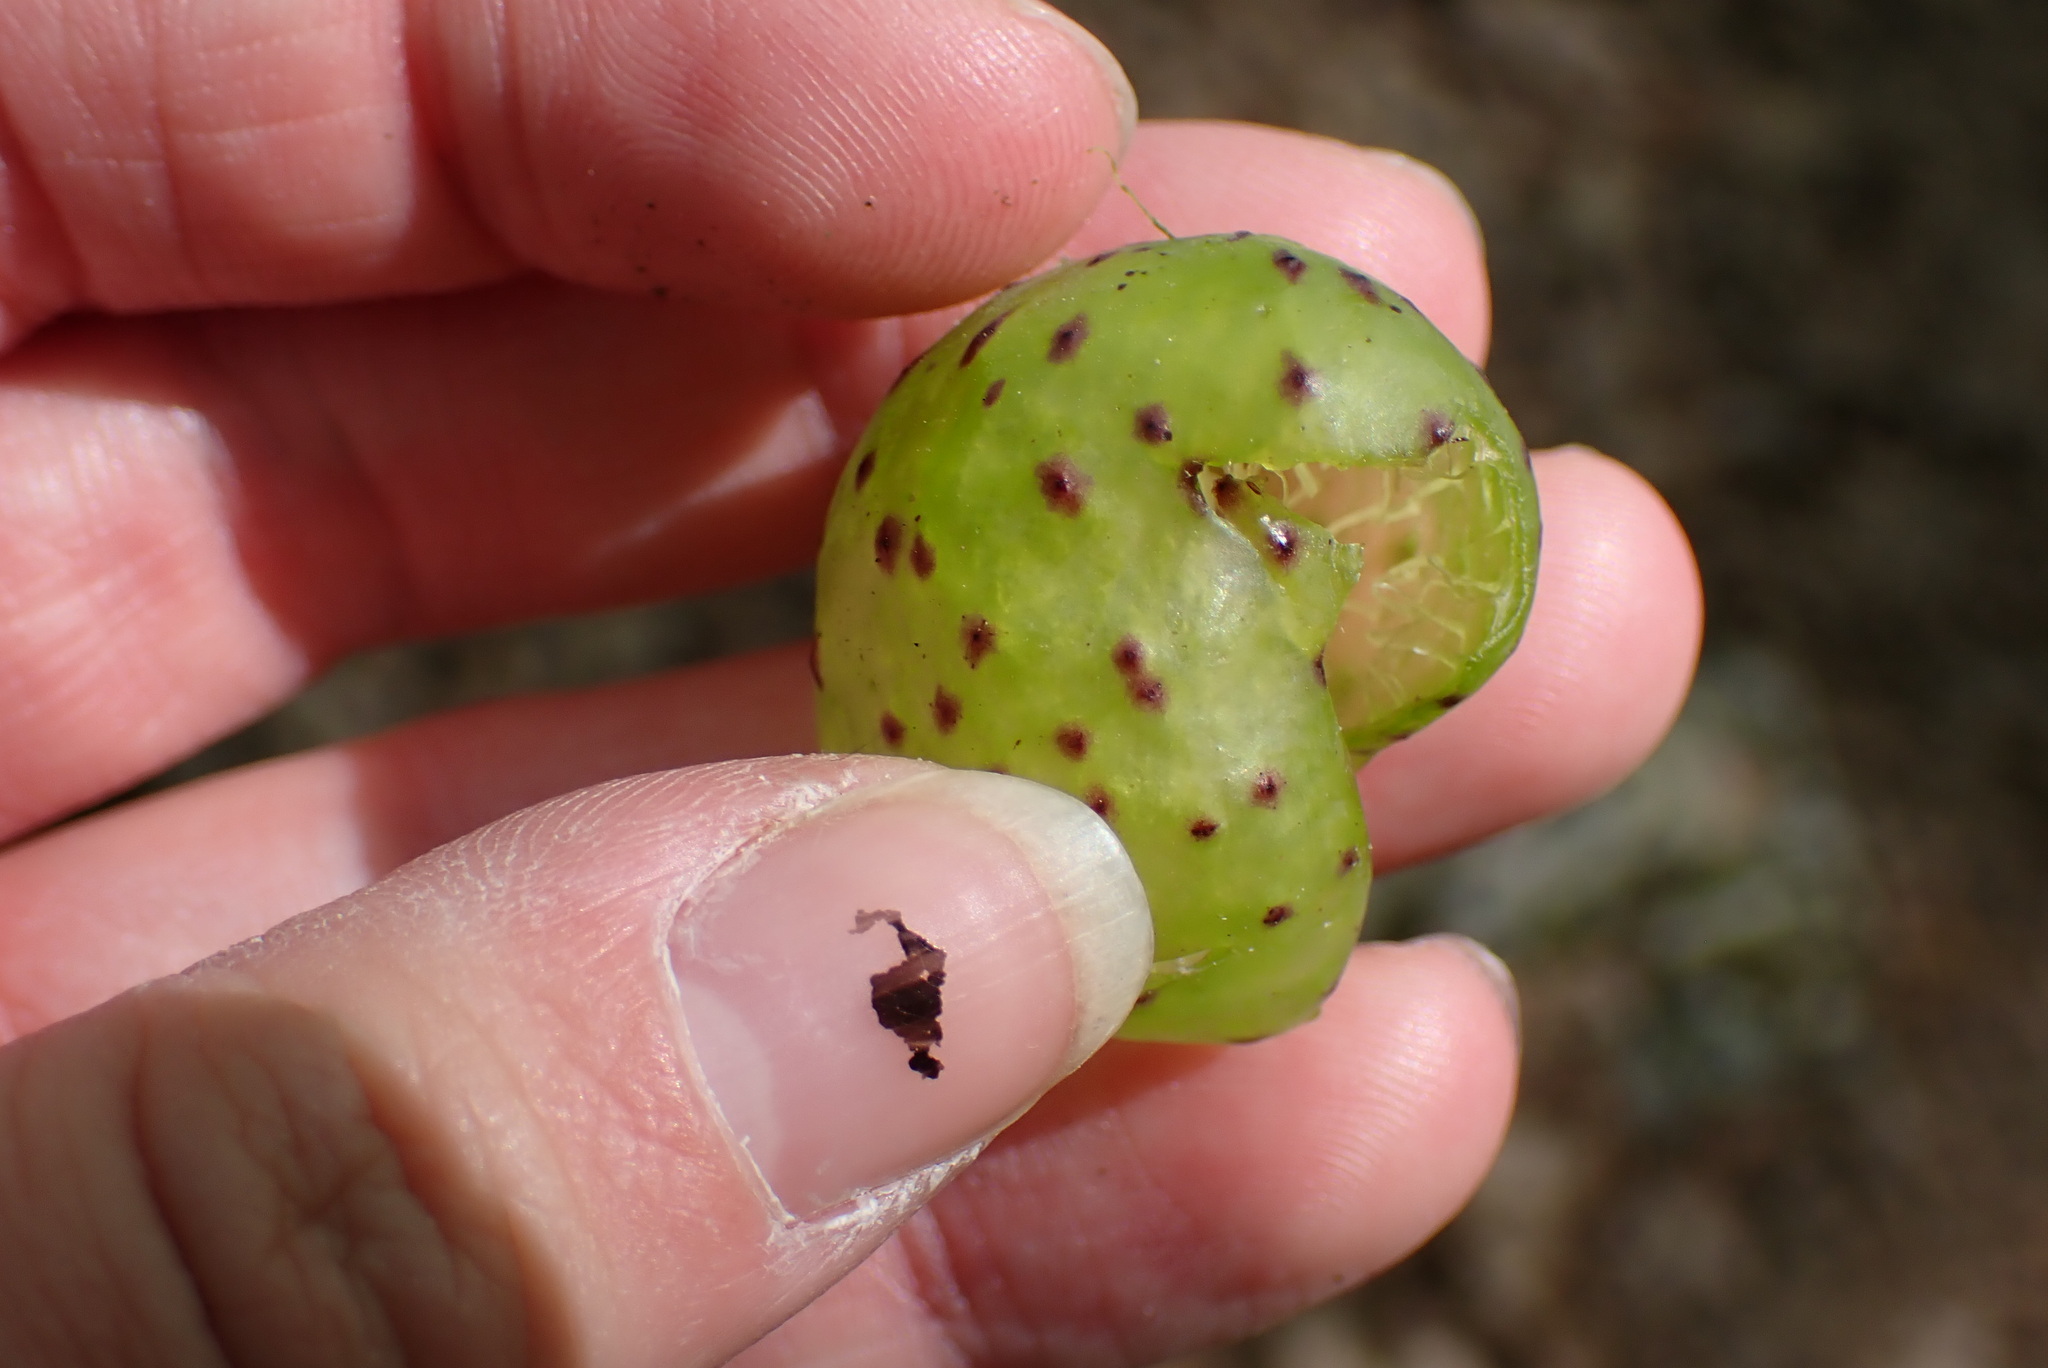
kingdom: Animalia
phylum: Arthropoda
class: Insecta
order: Hymenoptera
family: Cynipidae
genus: Amphibolips
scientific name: Amphibolips
